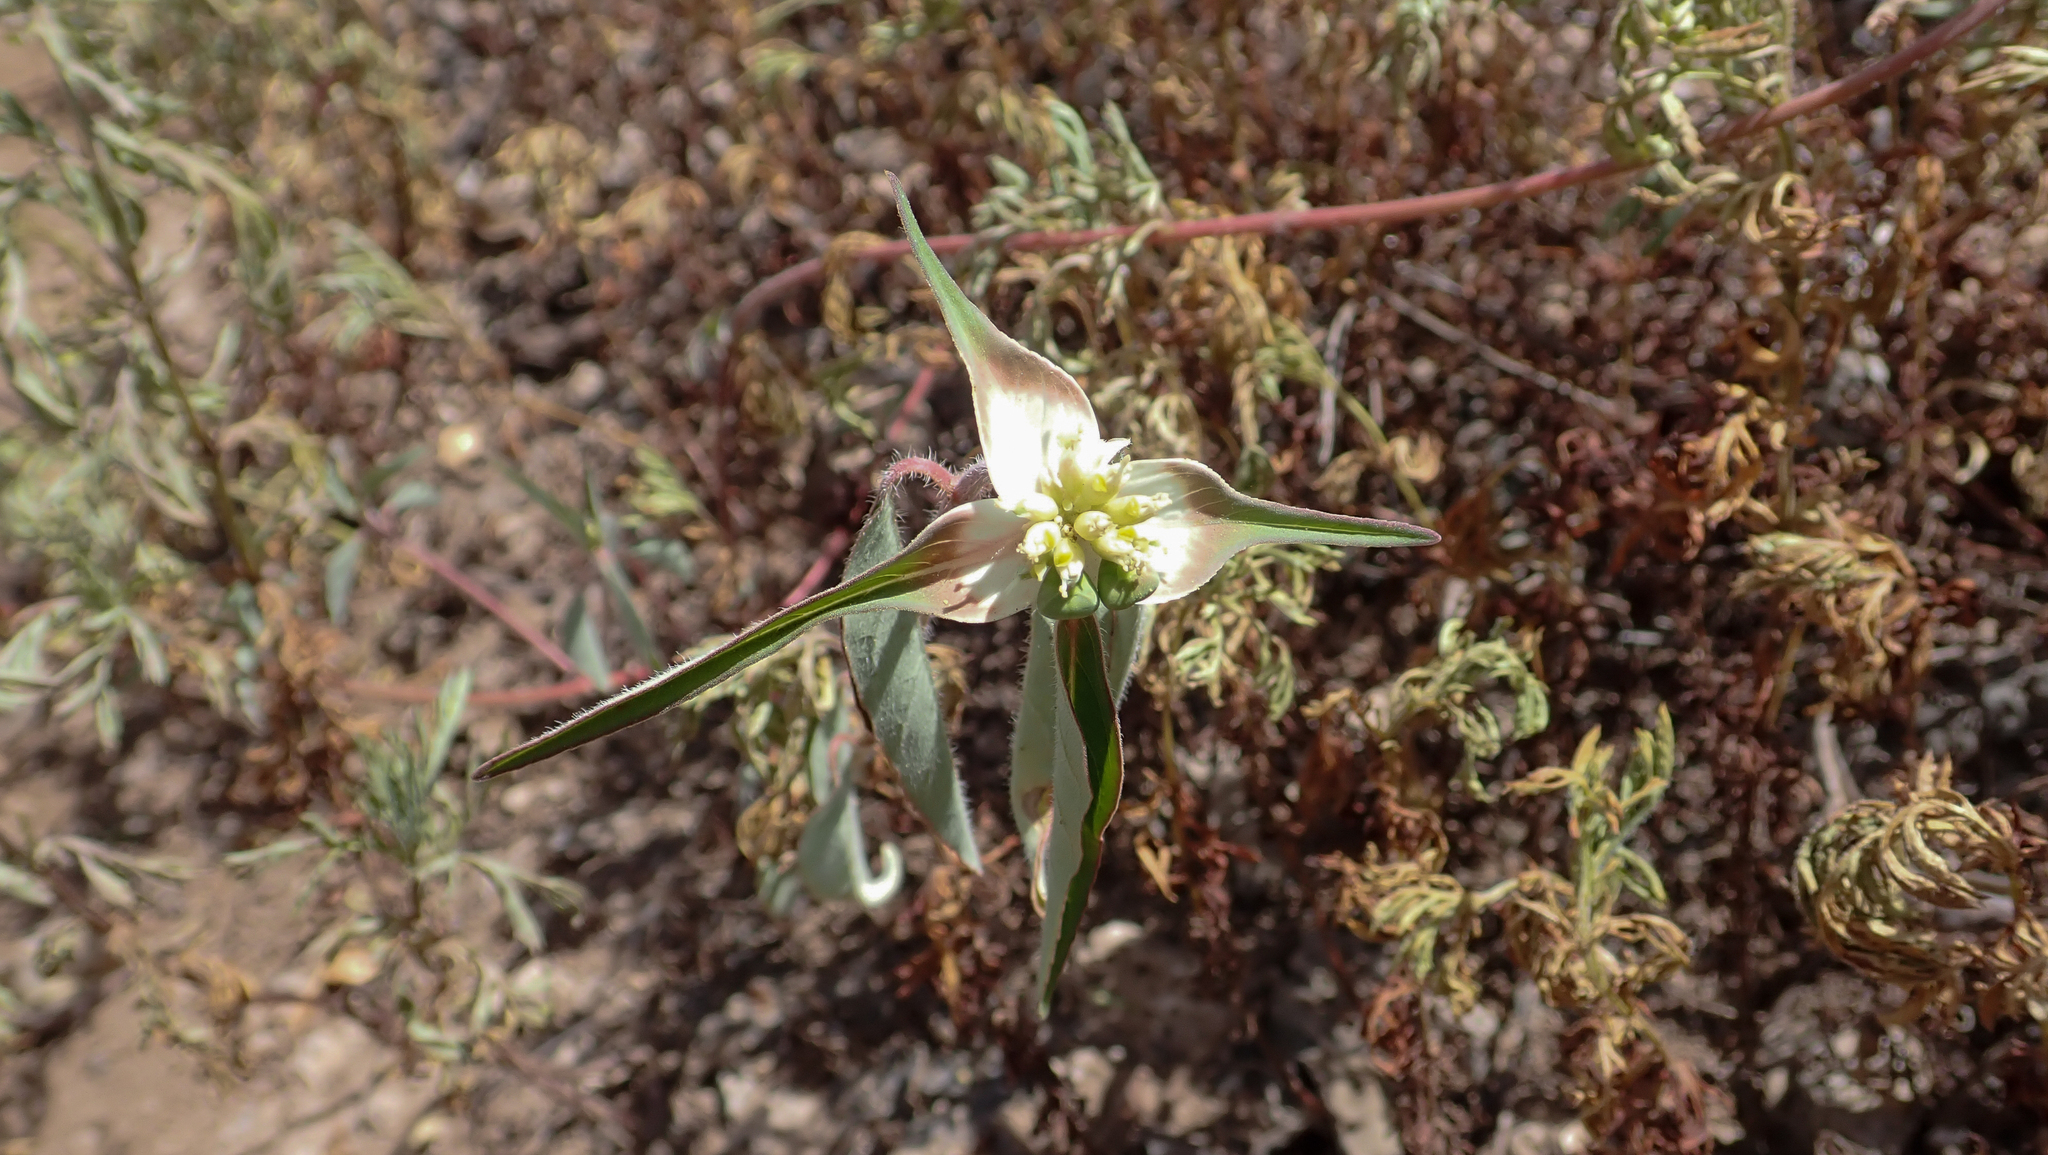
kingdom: Plantae
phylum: Tracheophyta
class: Magnoliopsida
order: Malpighiales
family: Euphorbiaceae
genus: Euphorbia
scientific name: Euphorbia schiedeana
